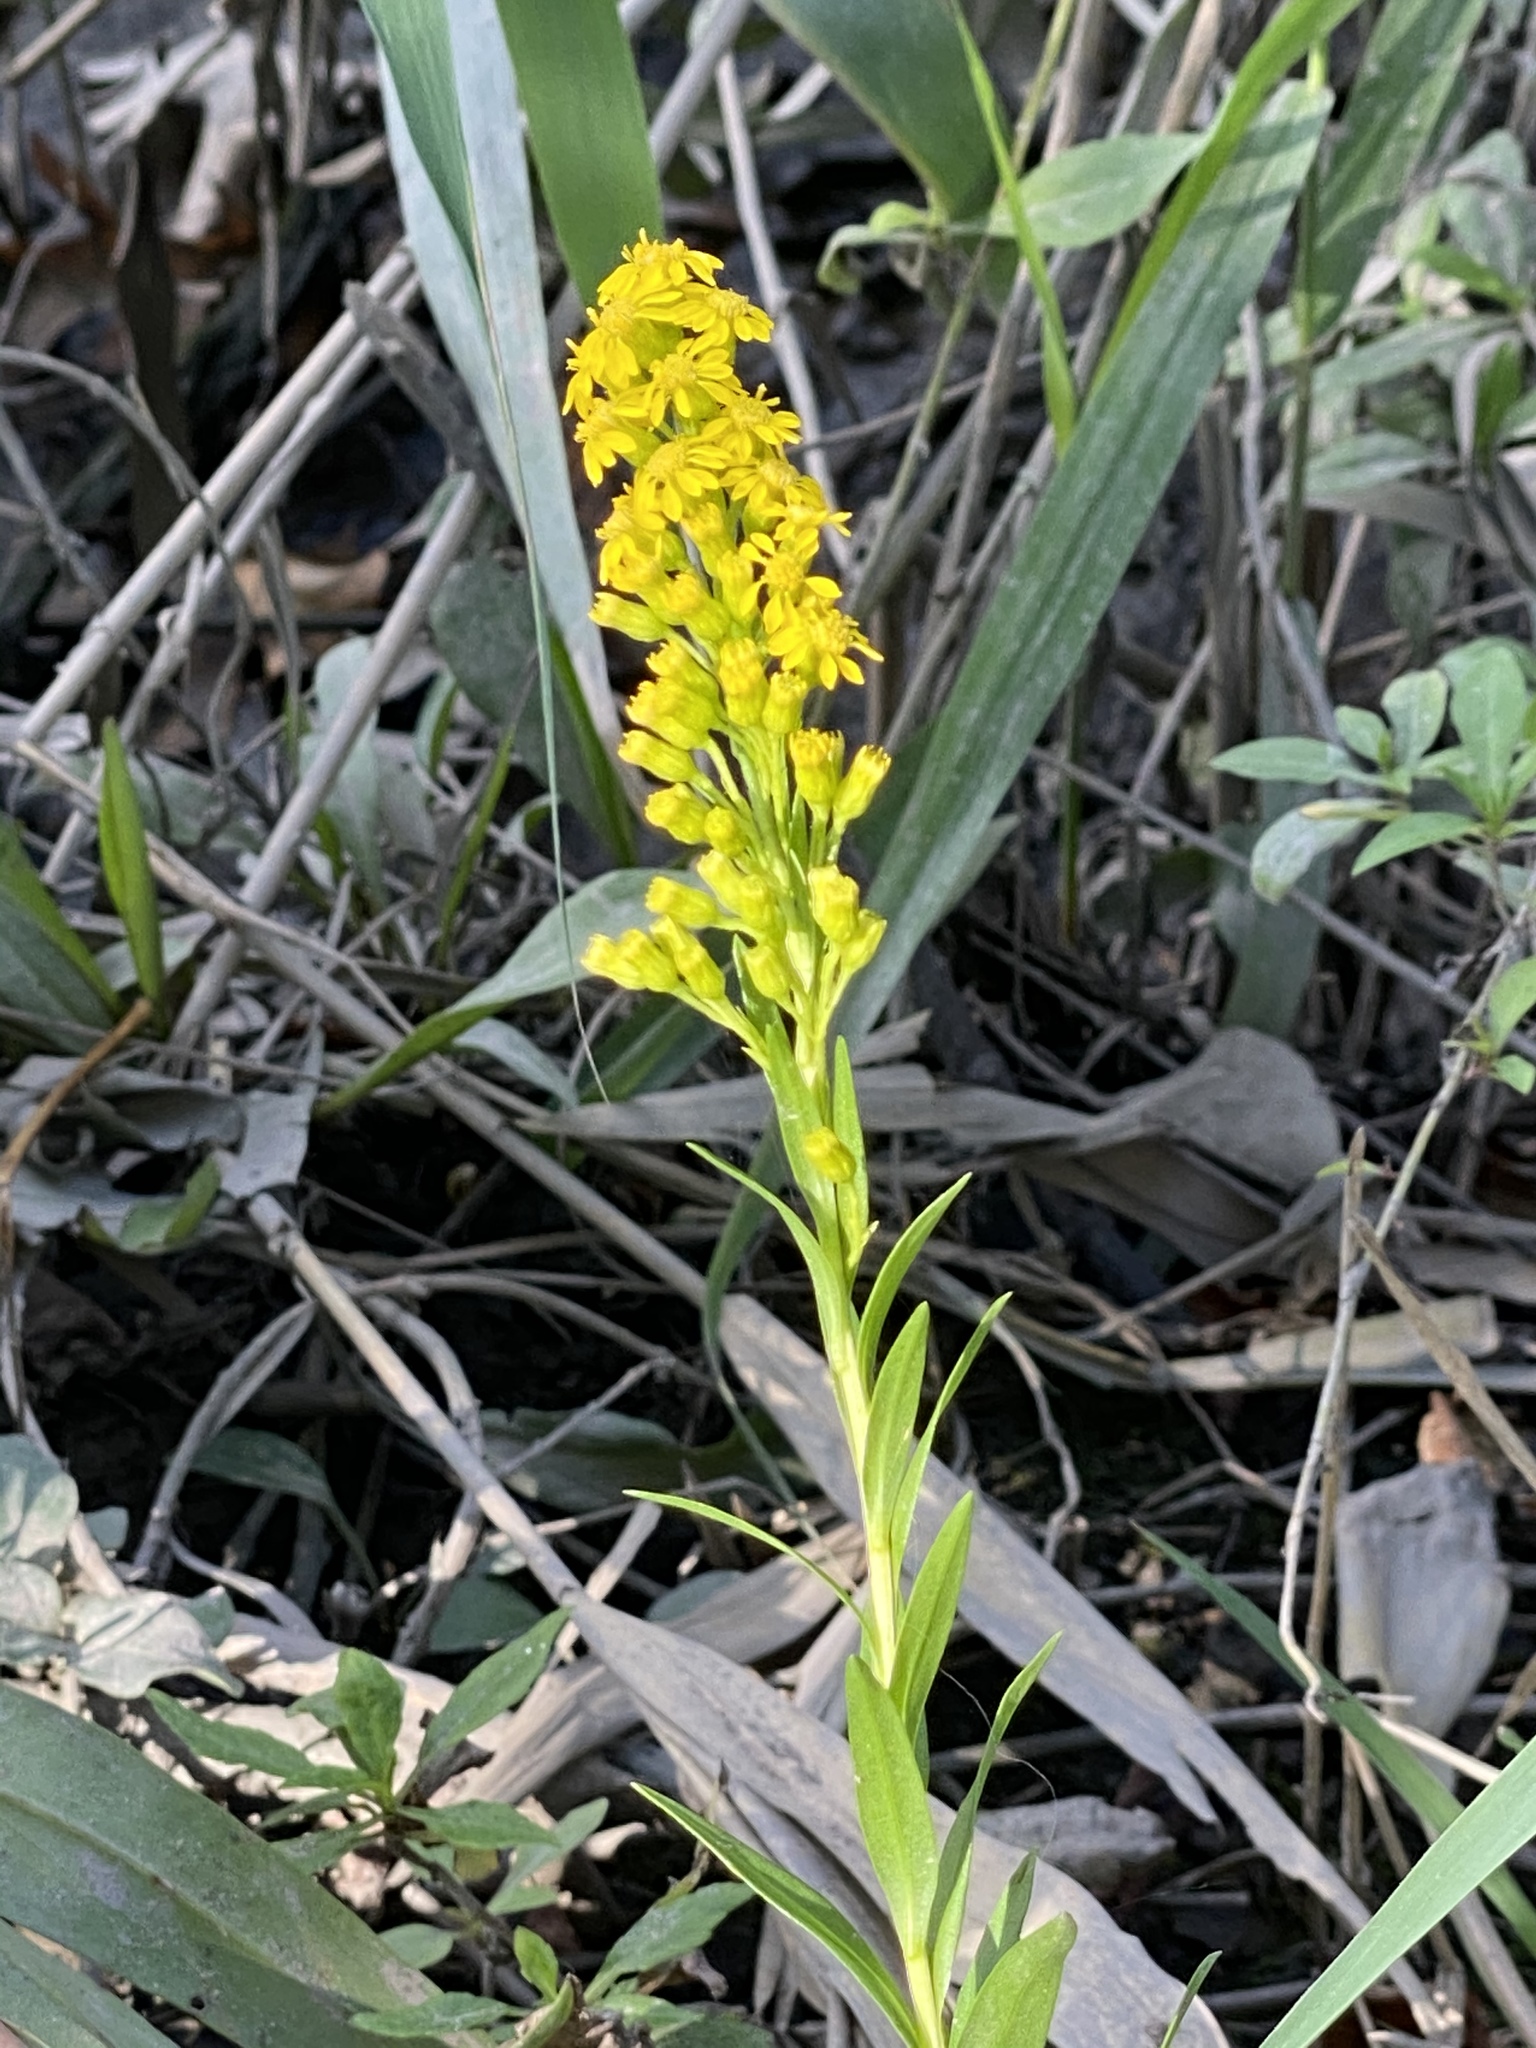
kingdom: Plantae
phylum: Tracheophyta
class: Magnoliopsida
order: Asterales
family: Asteraceae
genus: Solidago
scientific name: Solidago sempervirens
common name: Salt-marsh goldenrod
